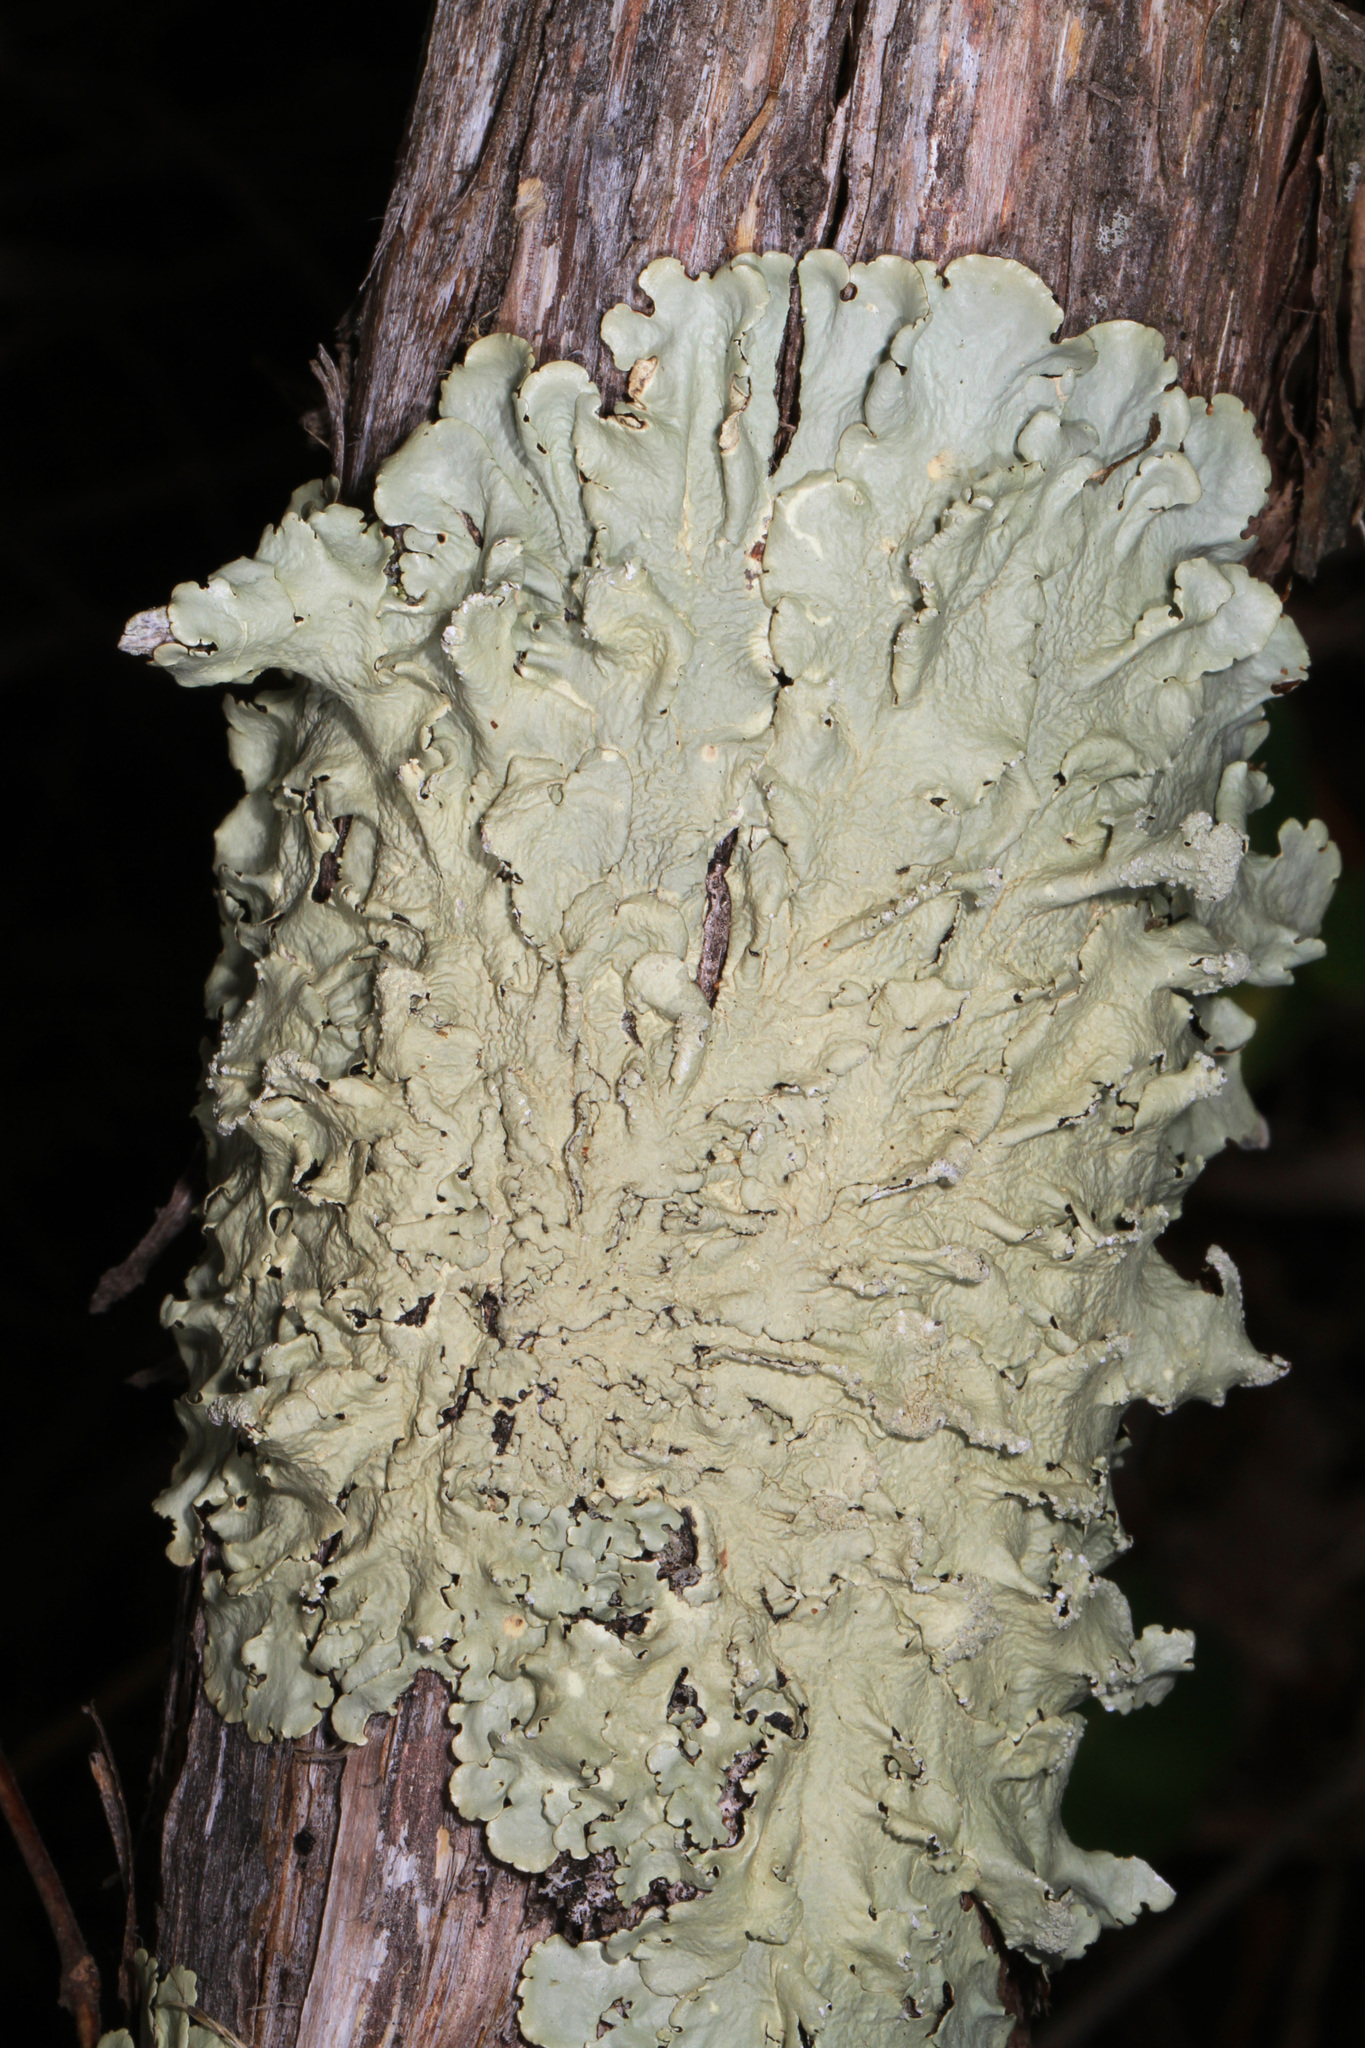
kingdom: Fungi
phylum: Ascomycota
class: Lecanoromycetes
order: Lecanorales
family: Parmeliaceae
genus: Flavoparmelia
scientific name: Flavoparmelia caperata
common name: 40-mile per hour lichen
